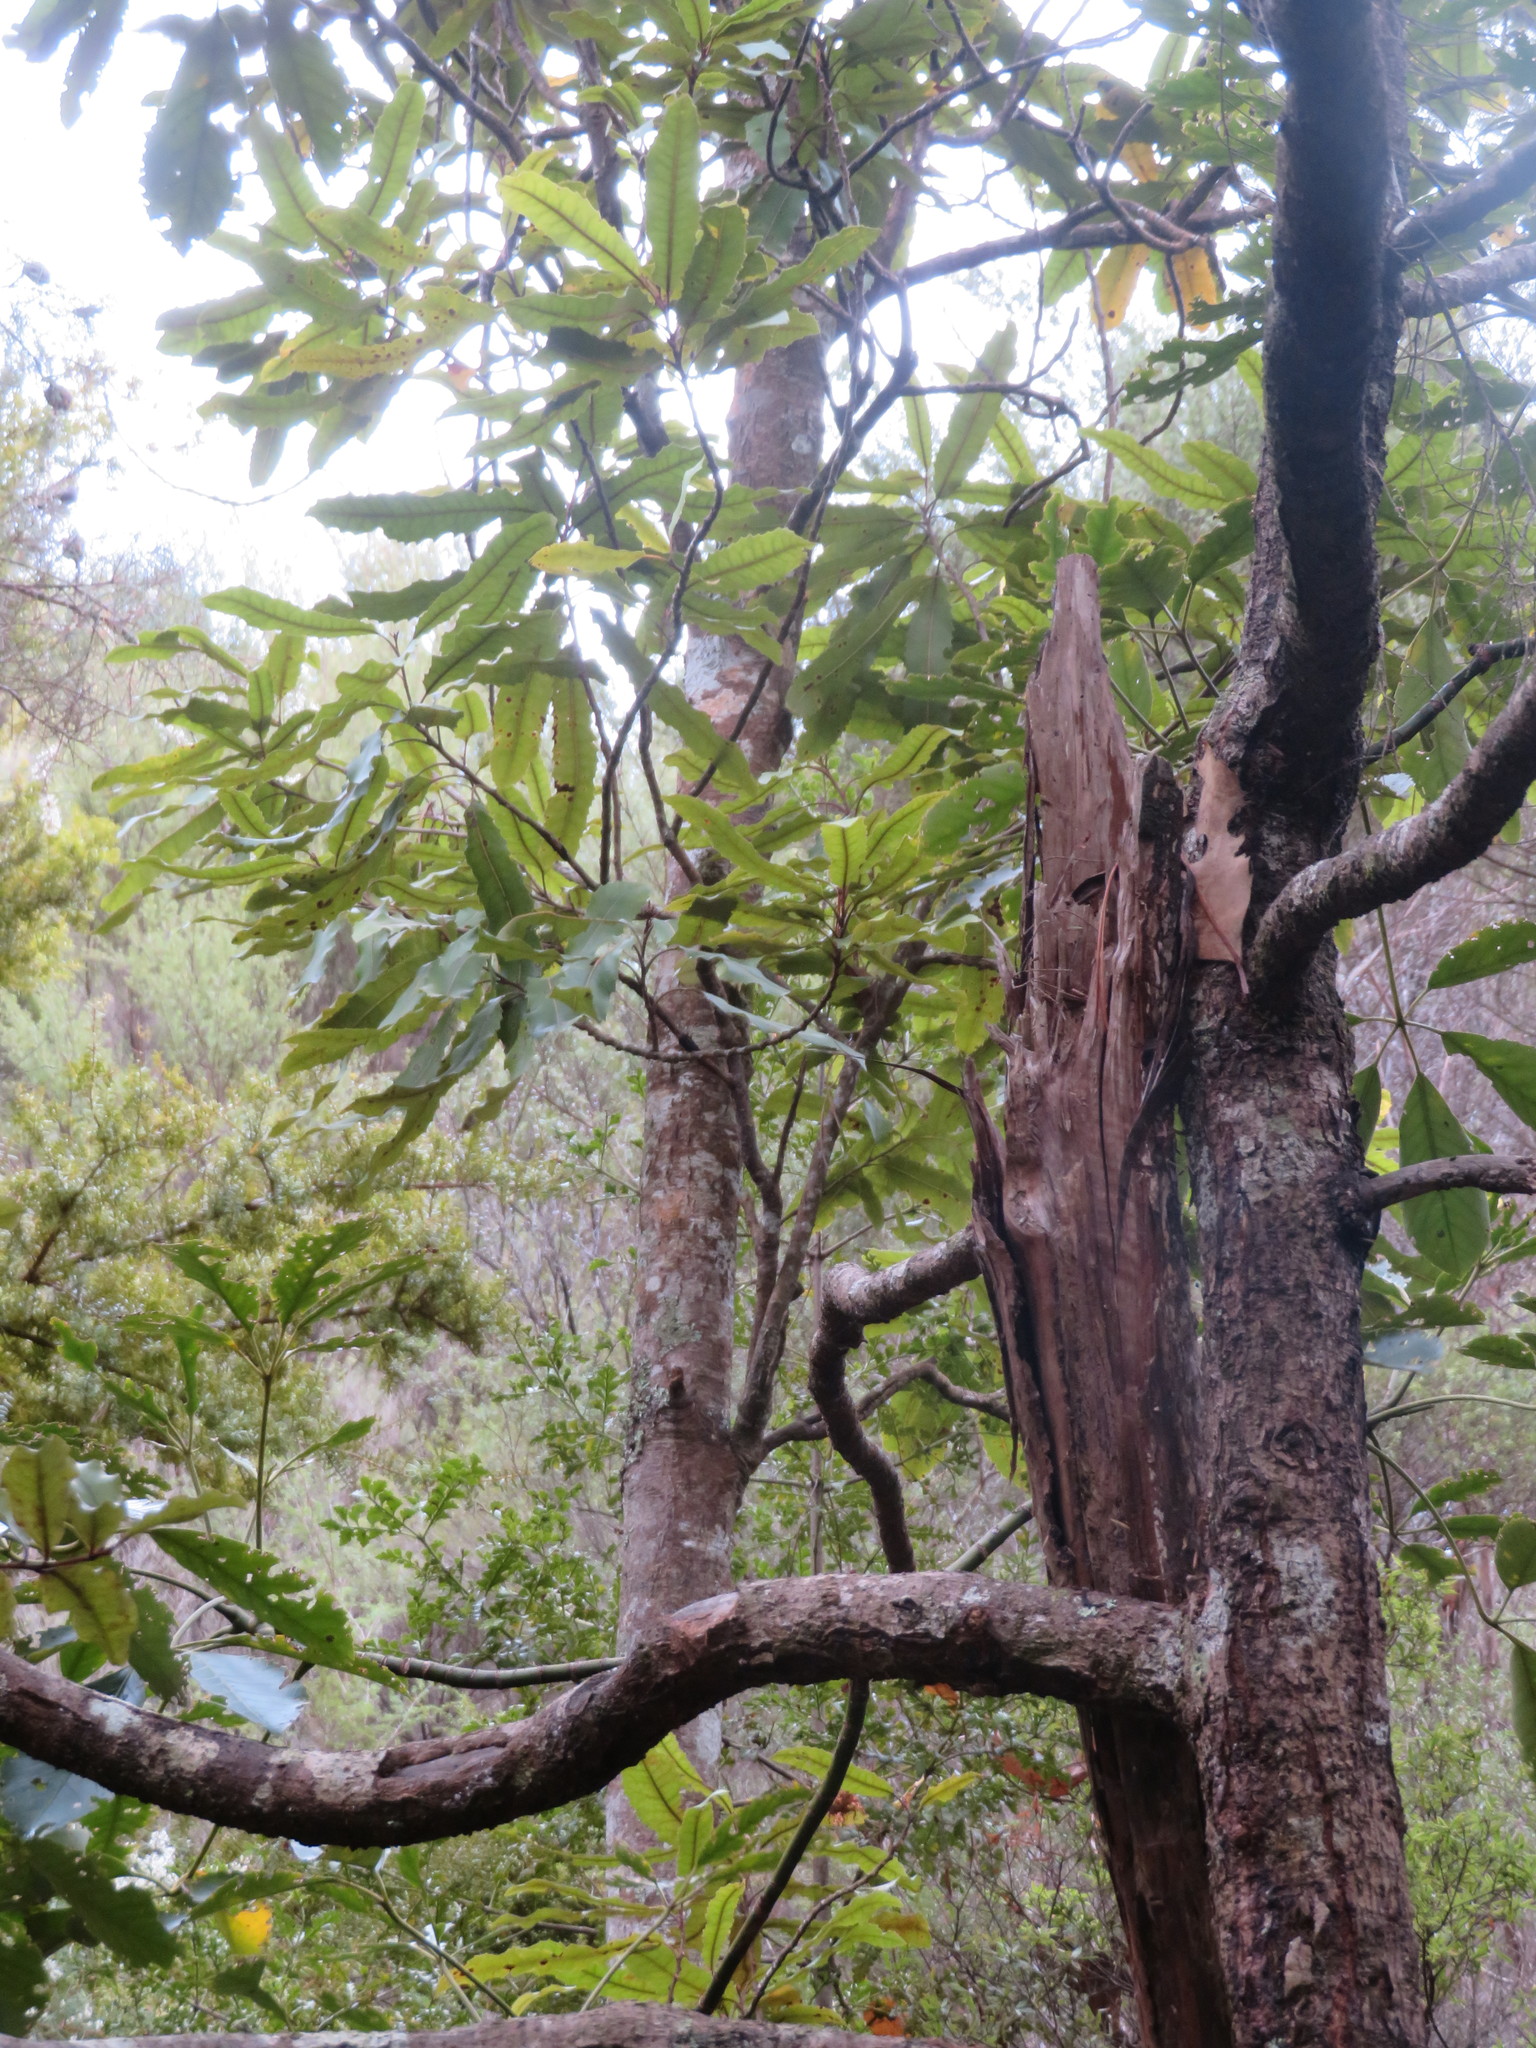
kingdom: Plantae
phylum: Tracheophyta
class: Magnoliopsida
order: Proteales
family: Proteaceae
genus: Knightia
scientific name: Knightia excelsa
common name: New zealand-honeysuckle
